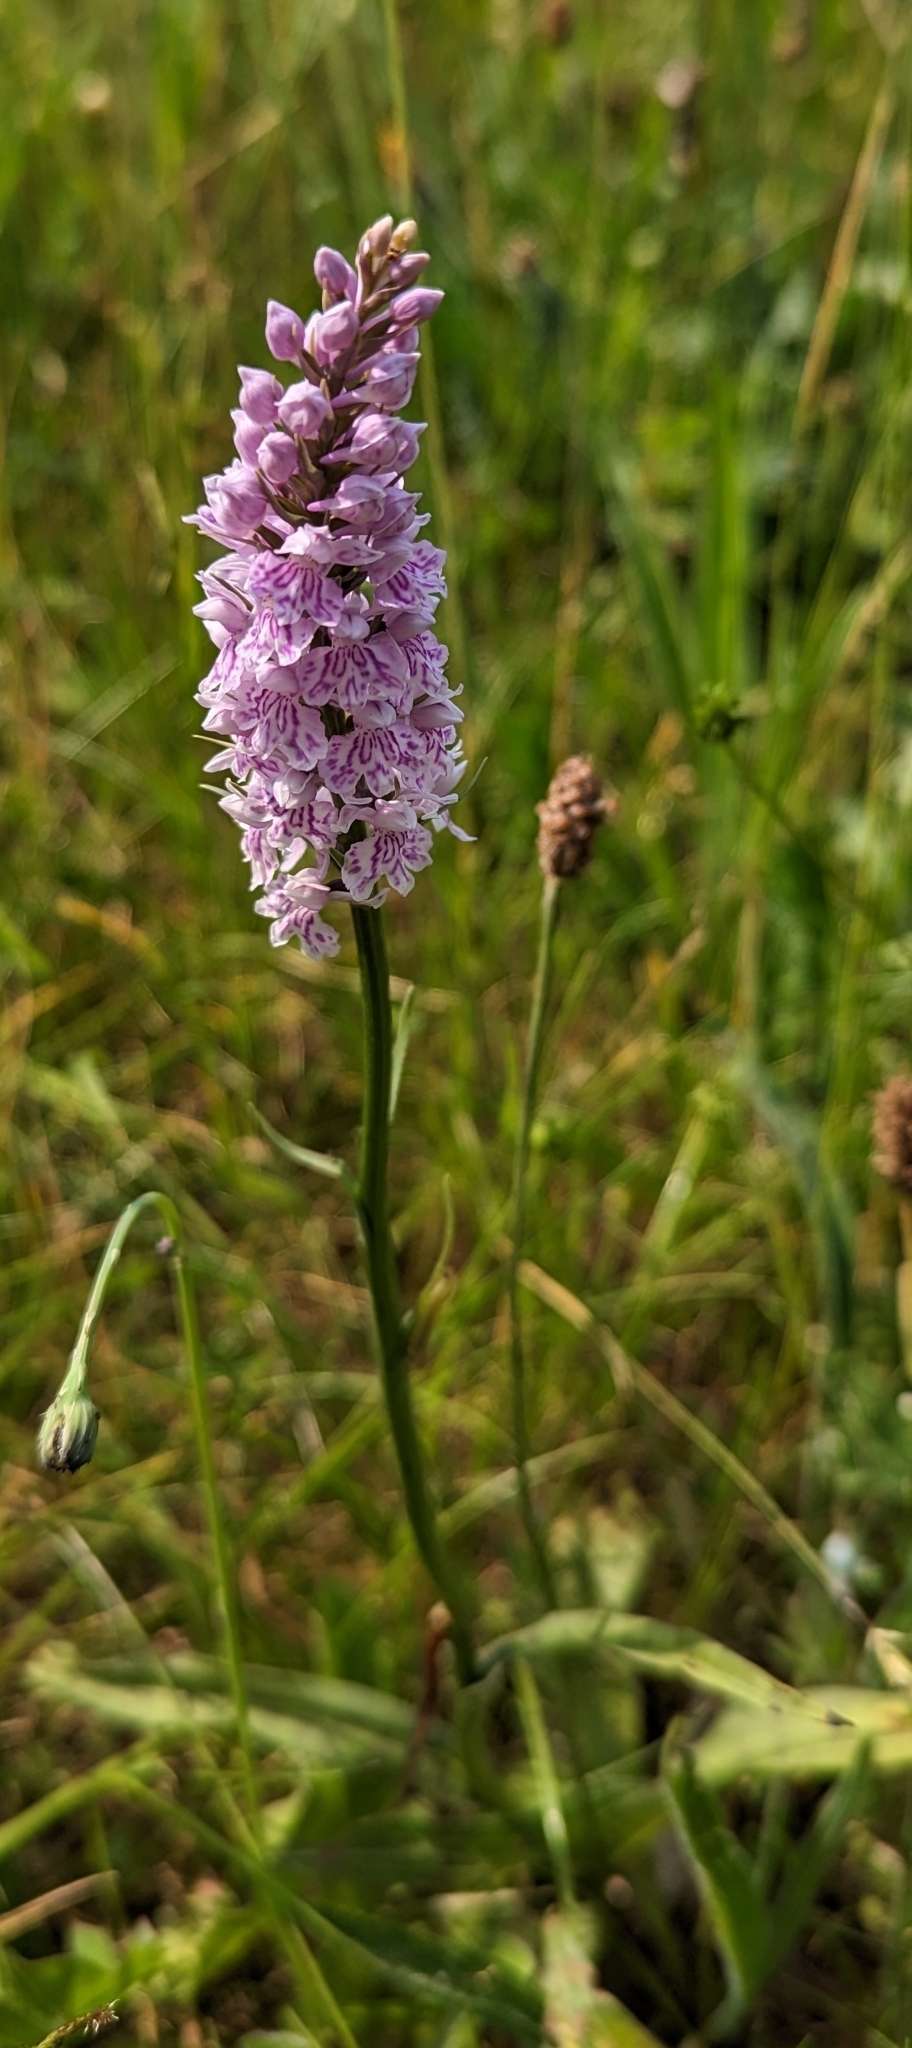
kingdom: Plantae
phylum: Tracheophyta
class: Liliopsida
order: Asparagales
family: Orchidaceae
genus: Dactylorhiza
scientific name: Dactylorhiza maculata
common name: Heath spotted-orchid
